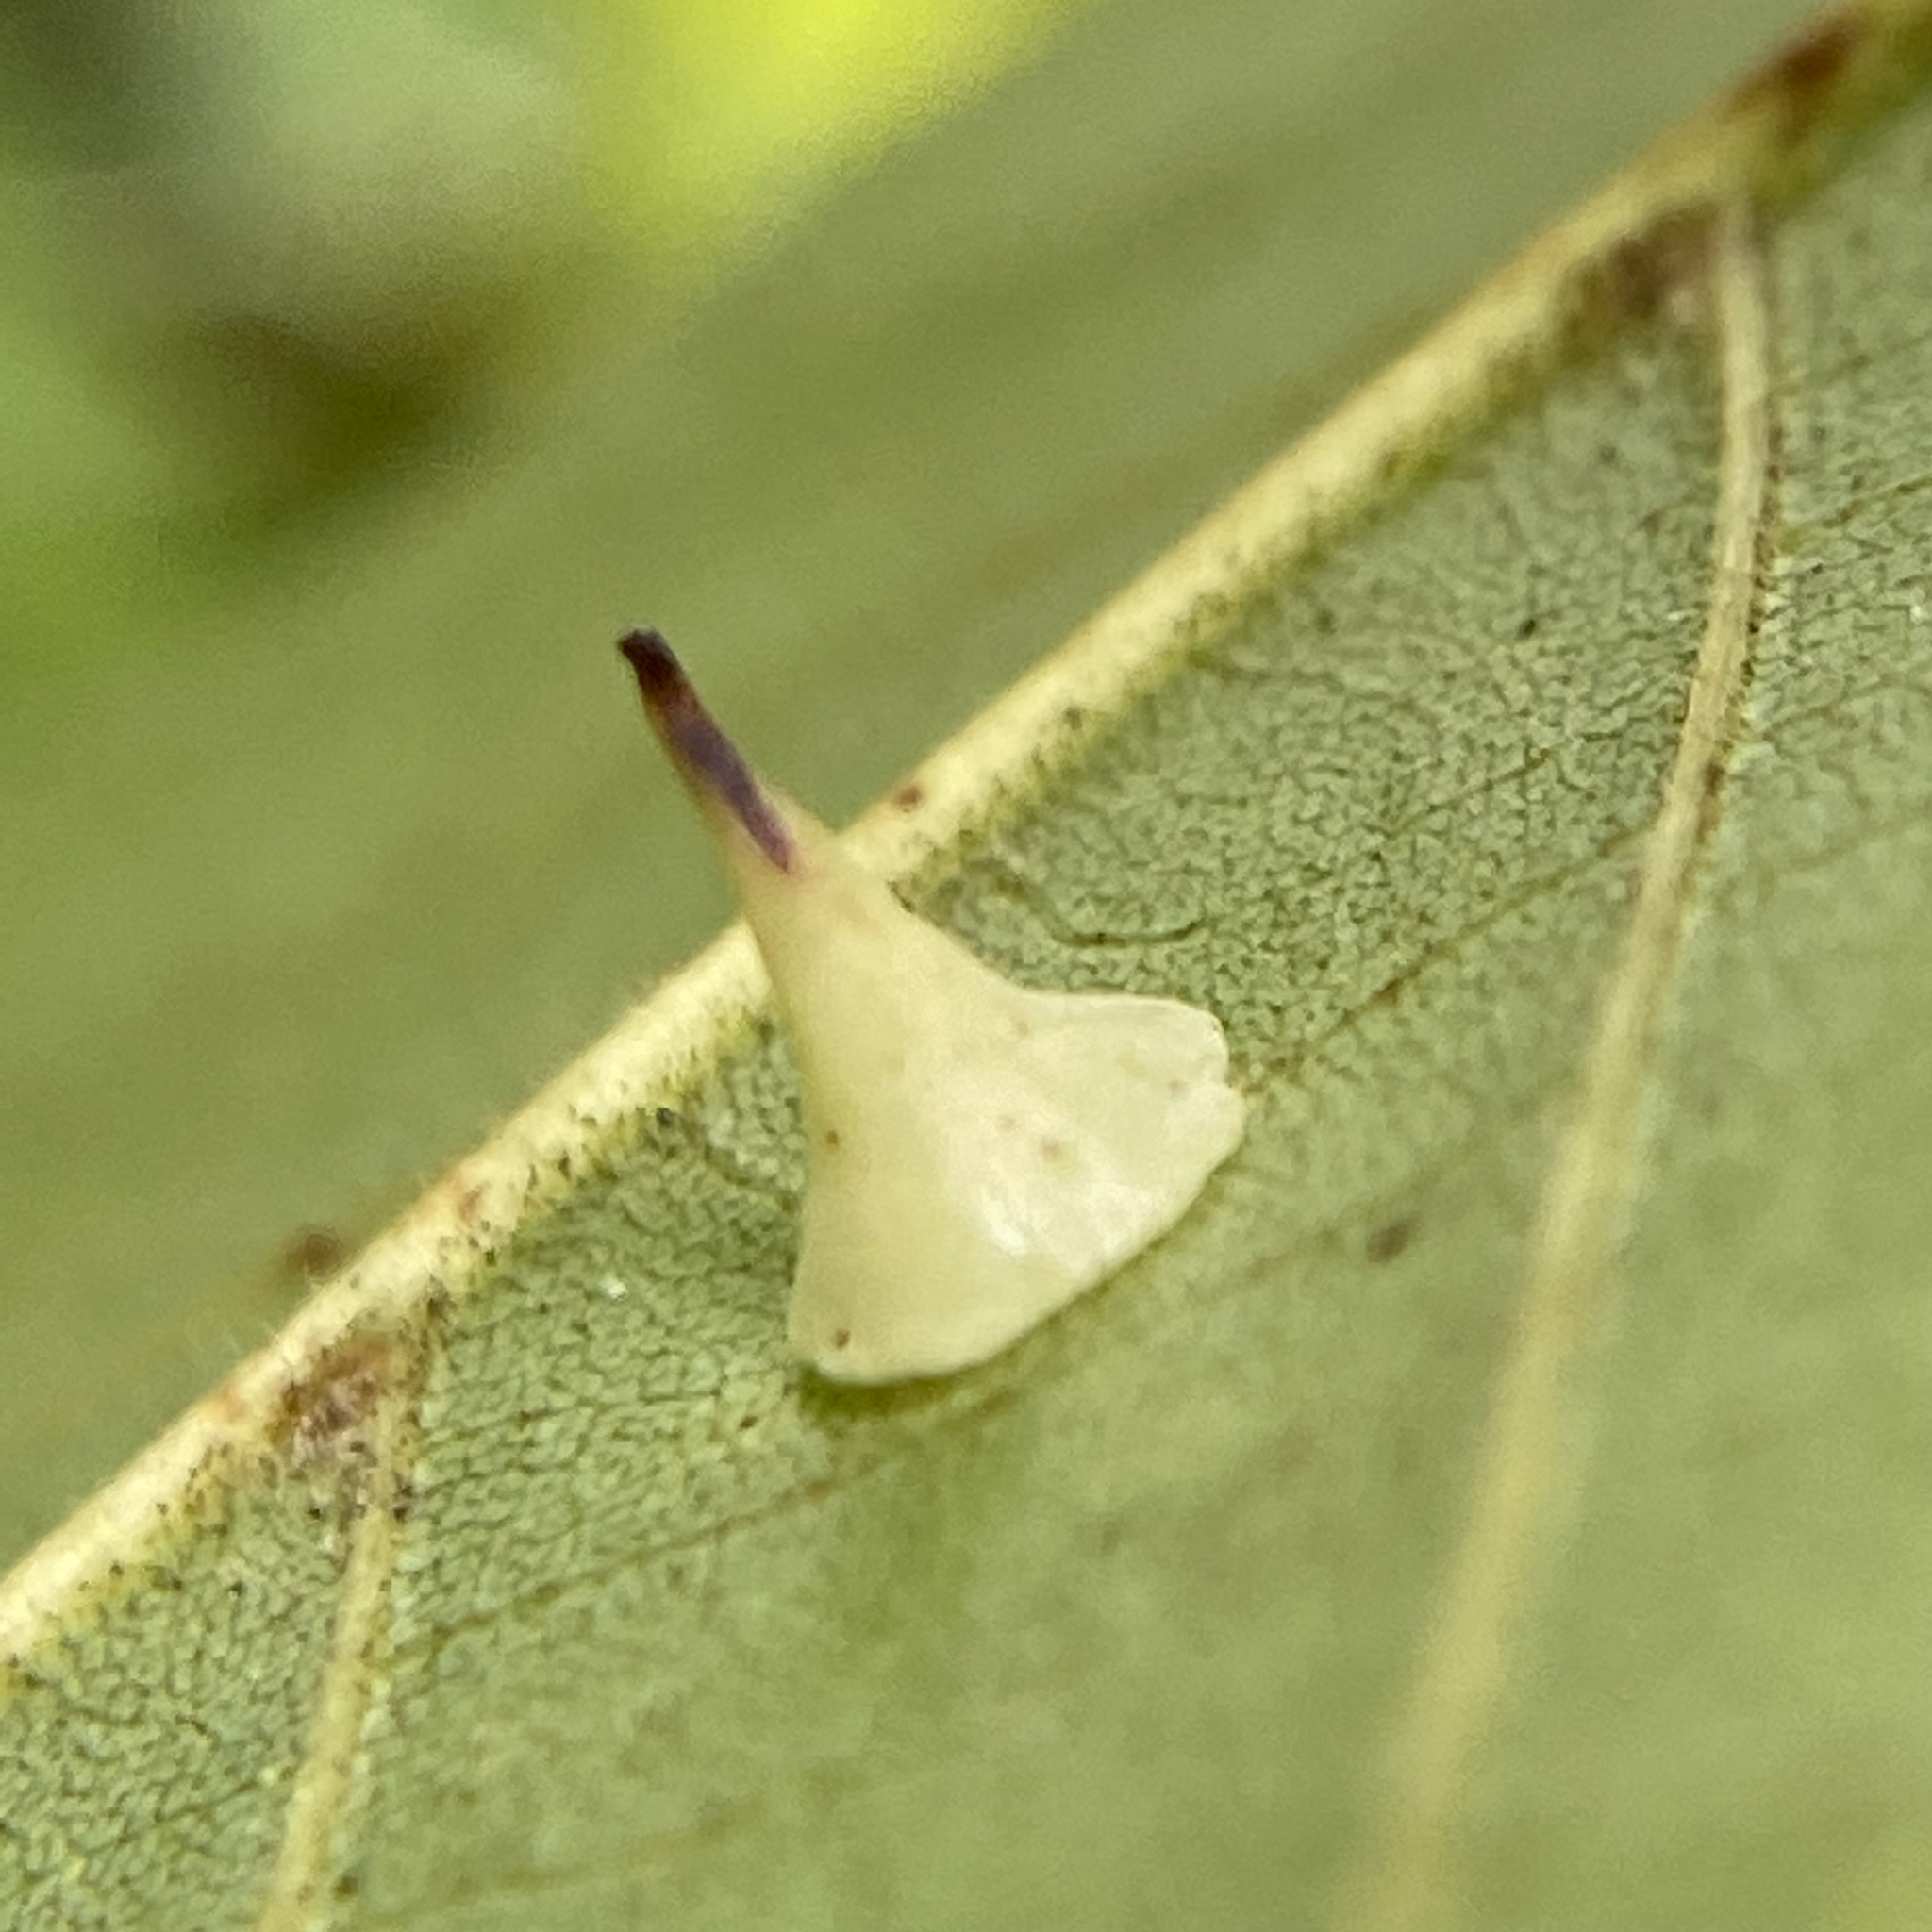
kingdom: Animalia
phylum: Arthropoda
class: Insecta
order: Diptera
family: Cecidomyiidae
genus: Caryomyia
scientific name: Caryomyia sanguinolenta
